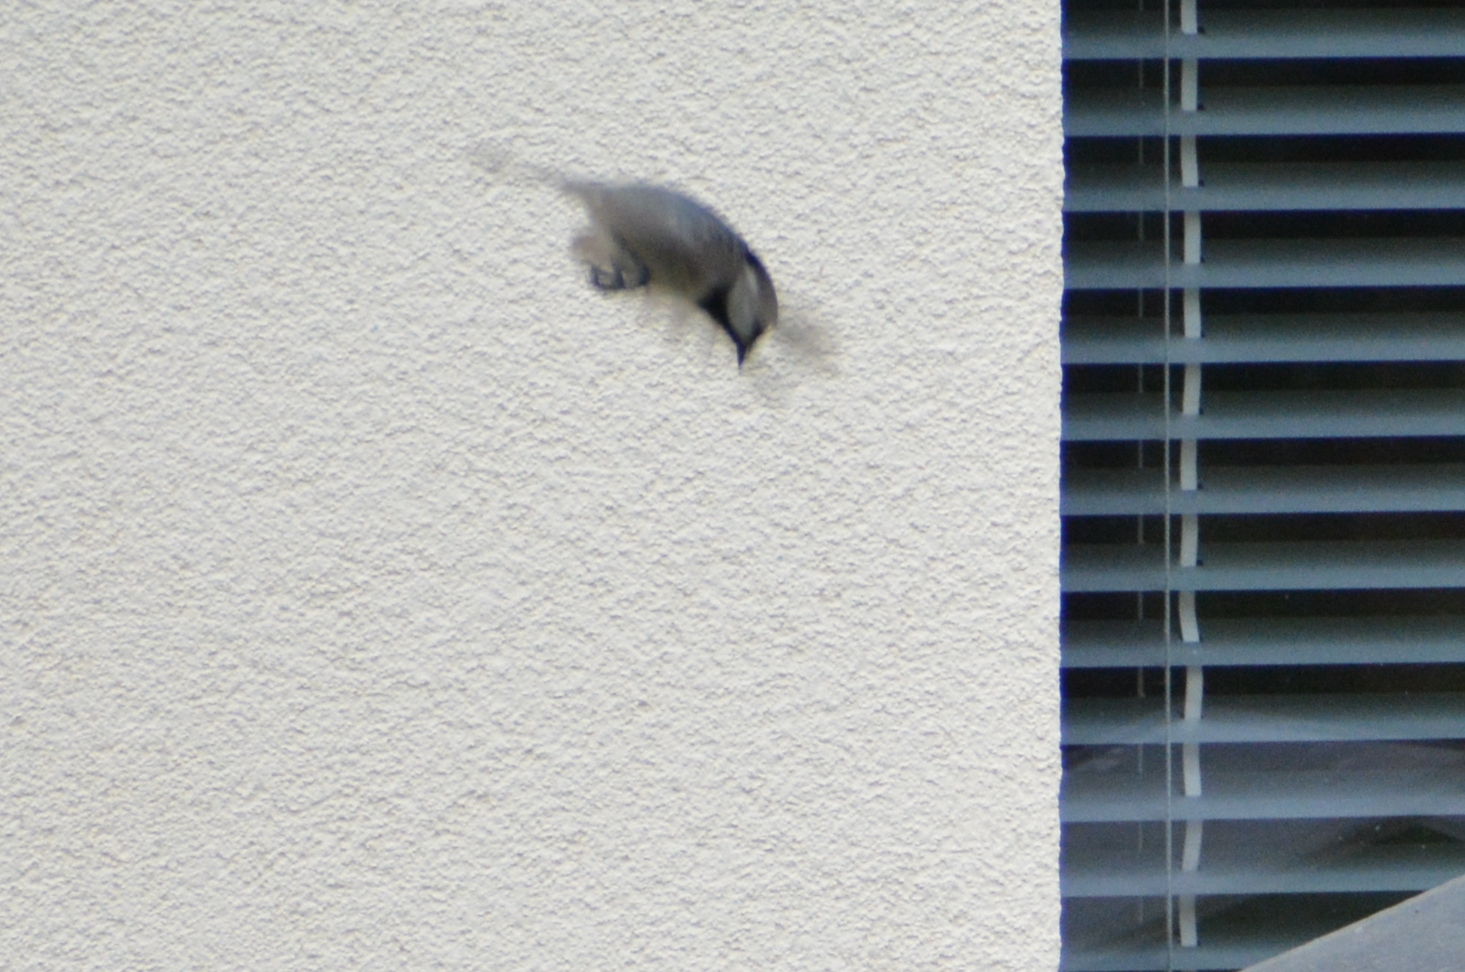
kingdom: Animalia
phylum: Chordata
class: Aves
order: Passeriformes
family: Paridae
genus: Parus
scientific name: Parus major
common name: Great tit
